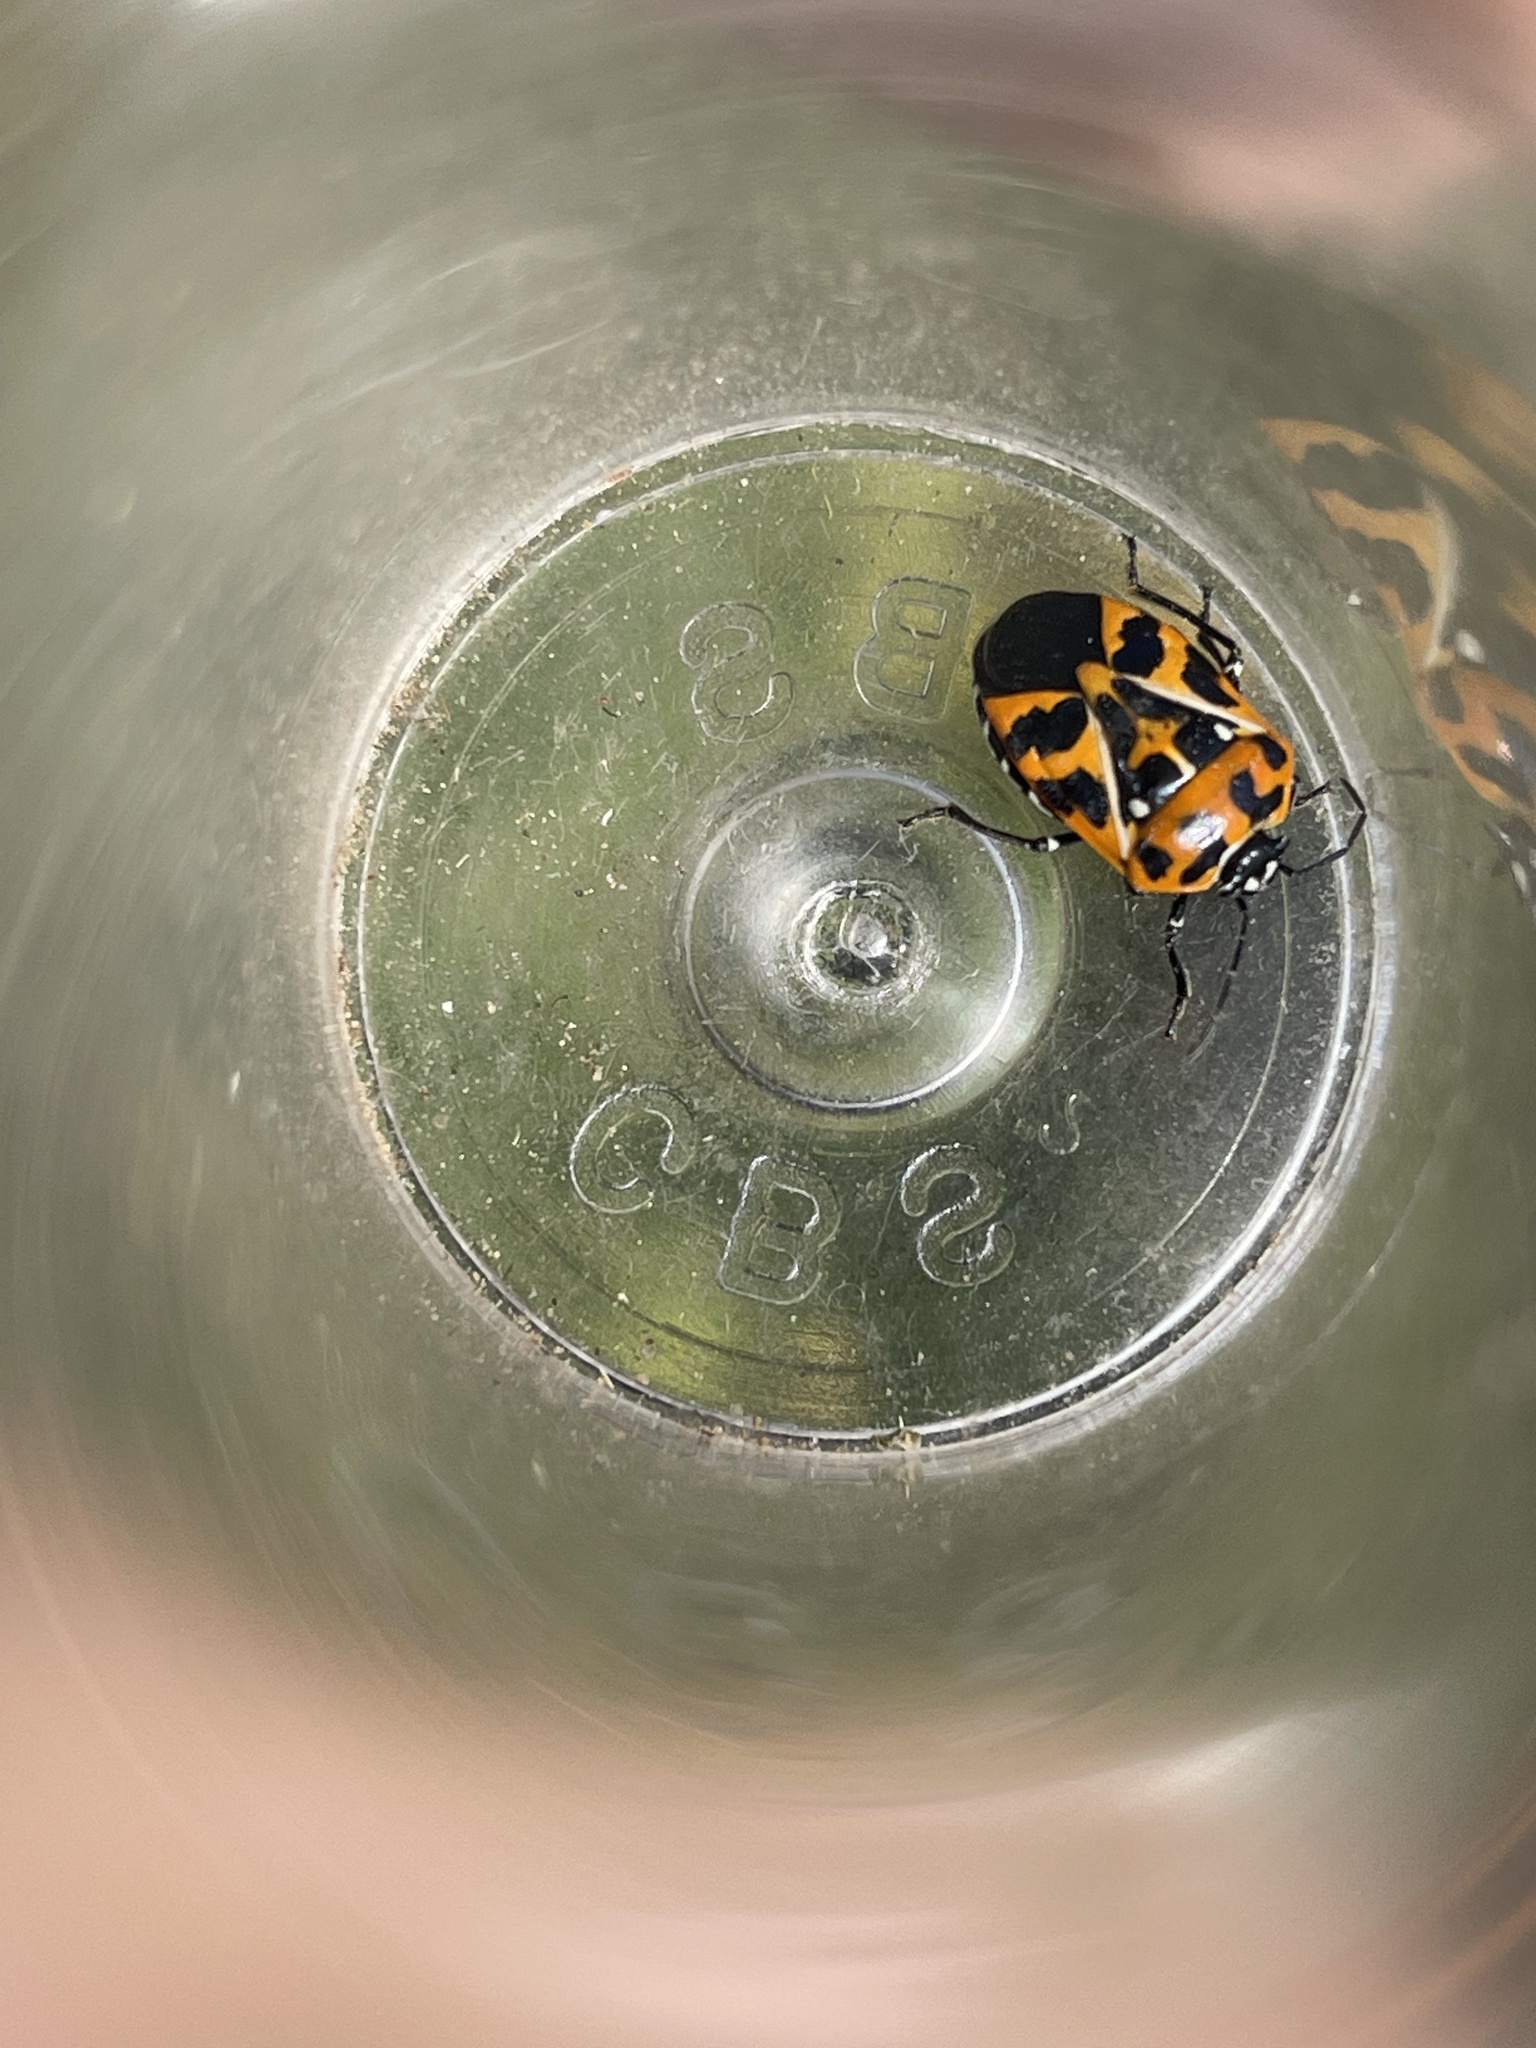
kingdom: Animalia
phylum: Arthropoda
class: Insecta
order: Hemiptera
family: Pentatomidae
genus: Murgantia
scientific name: Murgantia histrionica
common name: Harlequin bug
